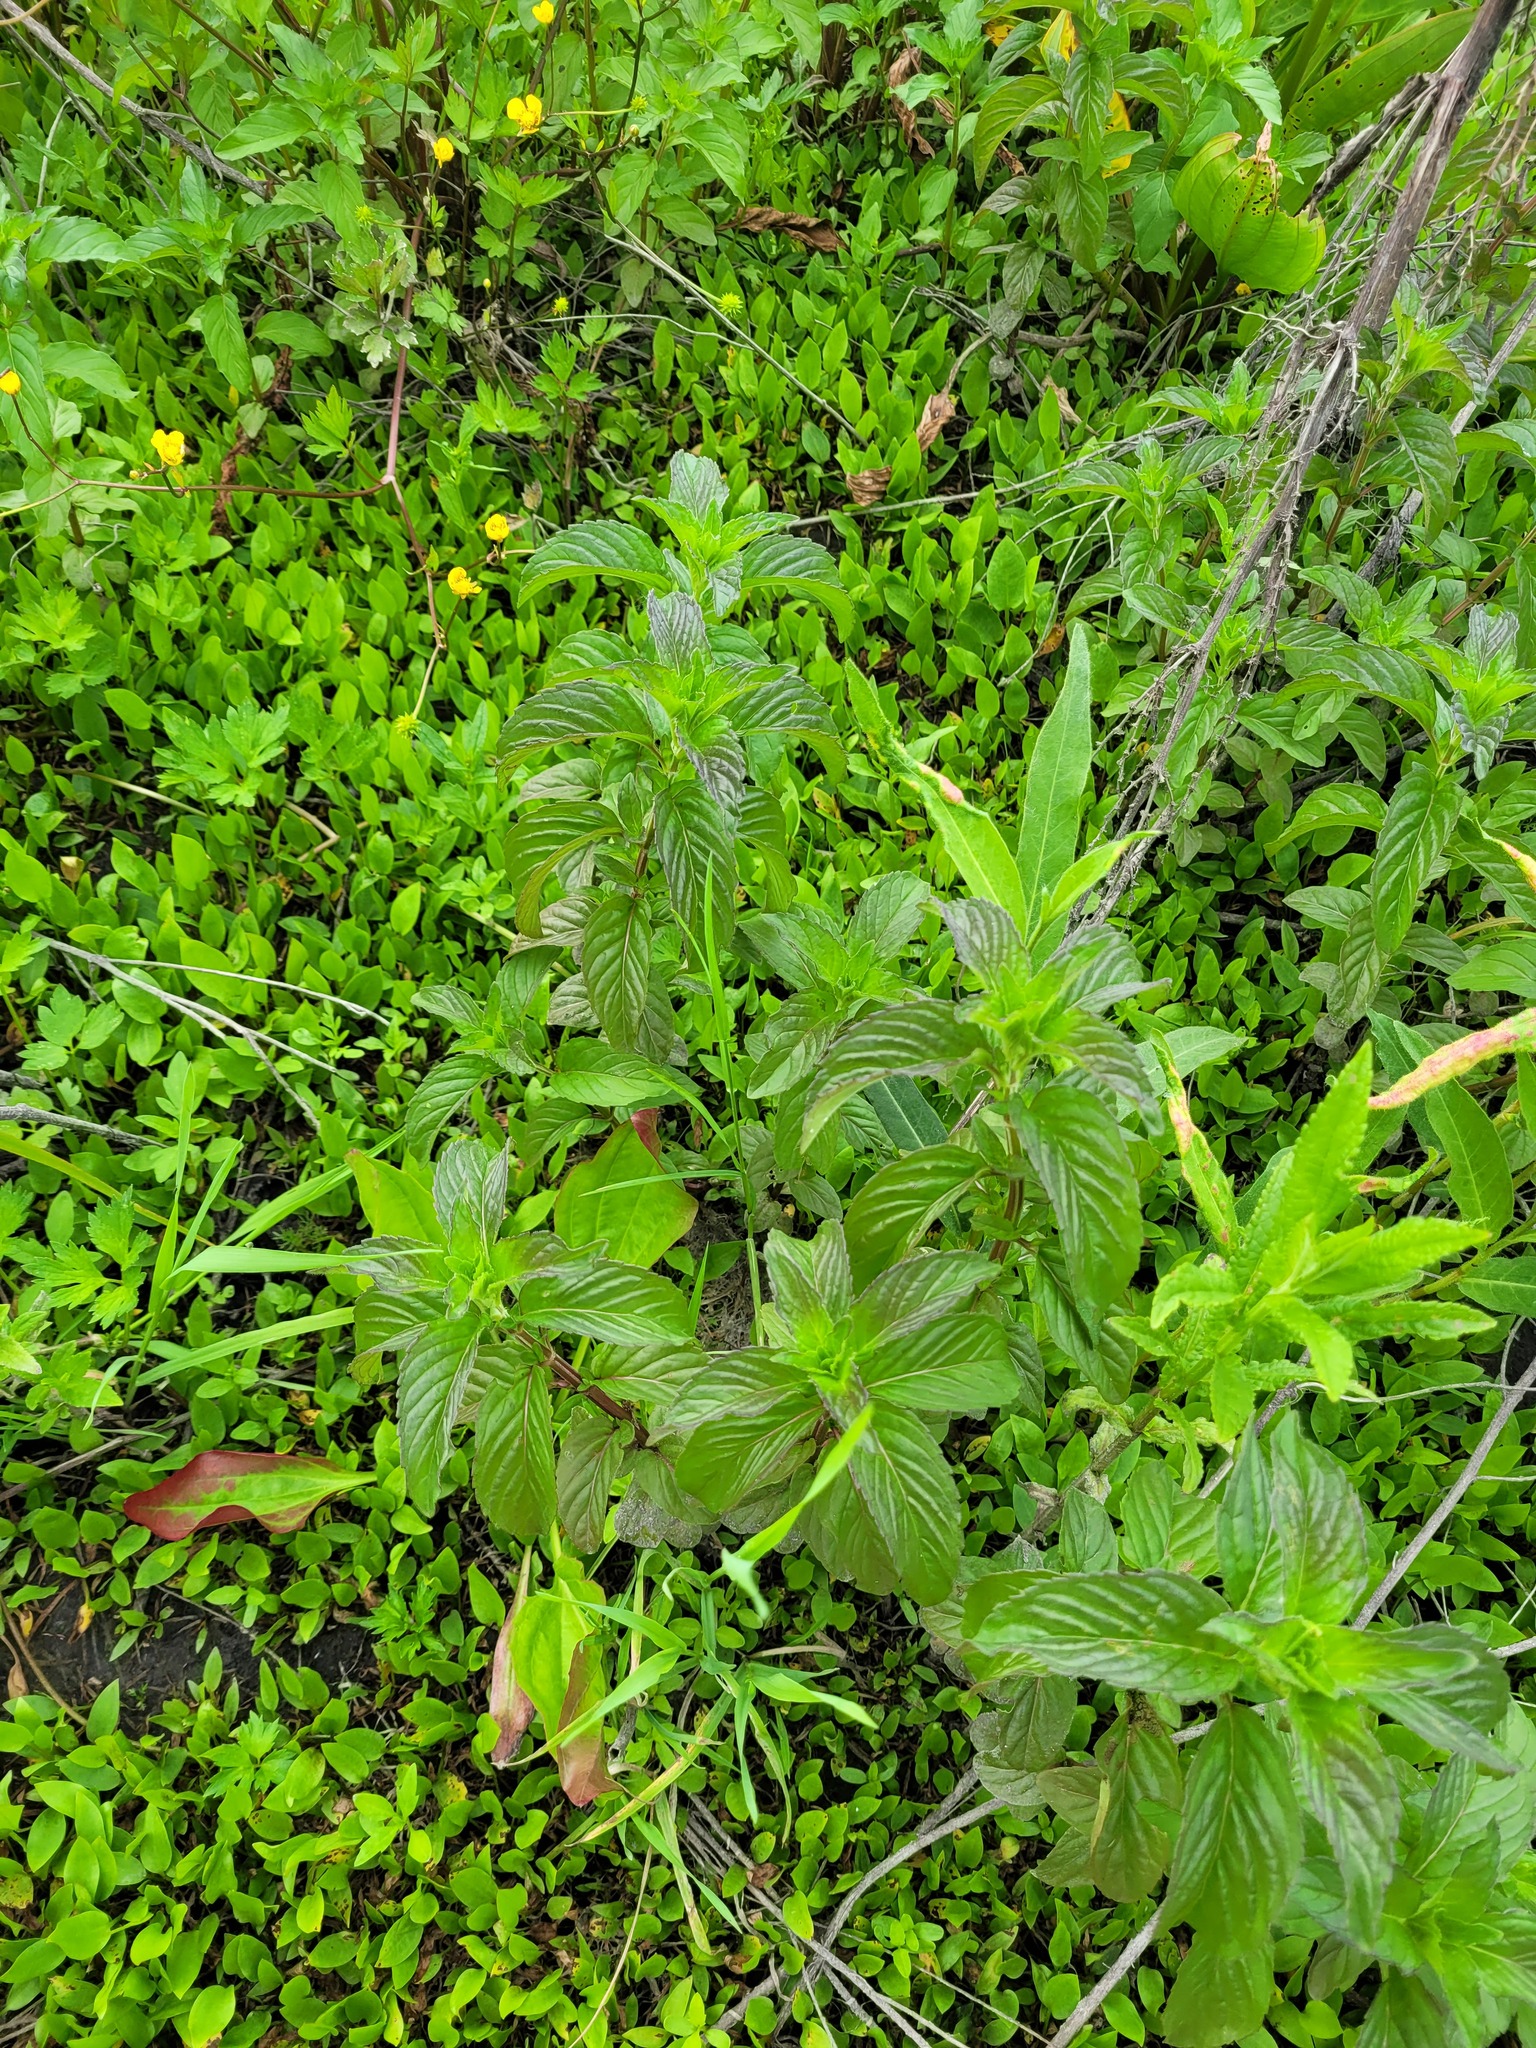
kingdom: Plantae
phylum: Tracheophyta
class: Magnoliopsida
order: Lamiales
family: Lamiaceae
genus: Mentha
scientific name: Mentha aquatica
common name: Water mint
